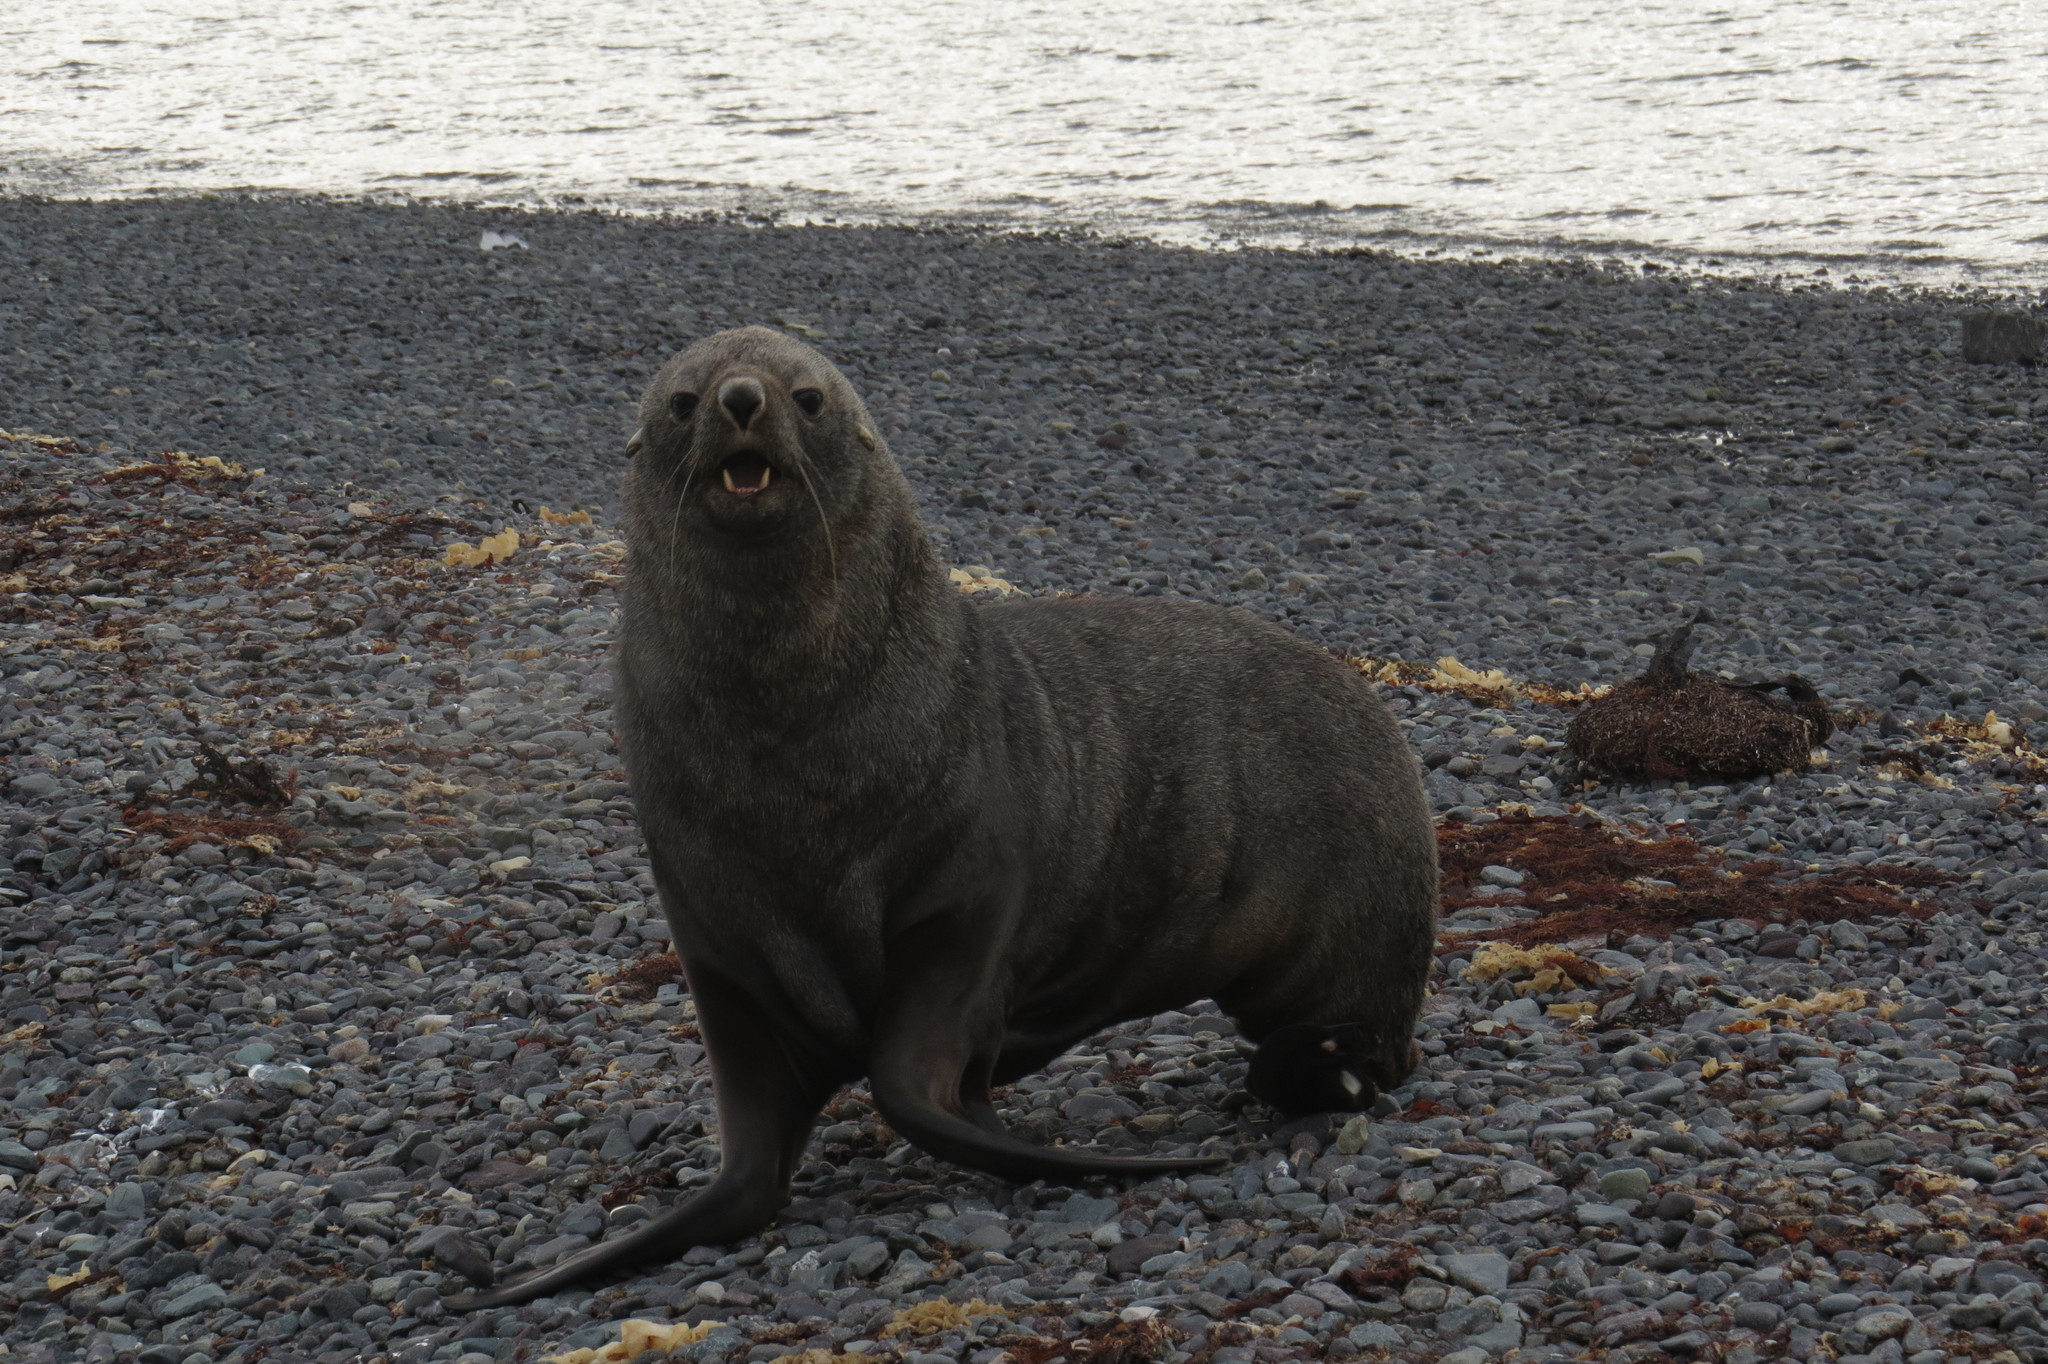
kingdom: Animalia
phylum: Chordata
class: Mammalia
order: Carnivora
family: Otariidae
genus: Arctocephalus
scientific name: Arctocephalus gazella
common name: Antarctic fur seal
